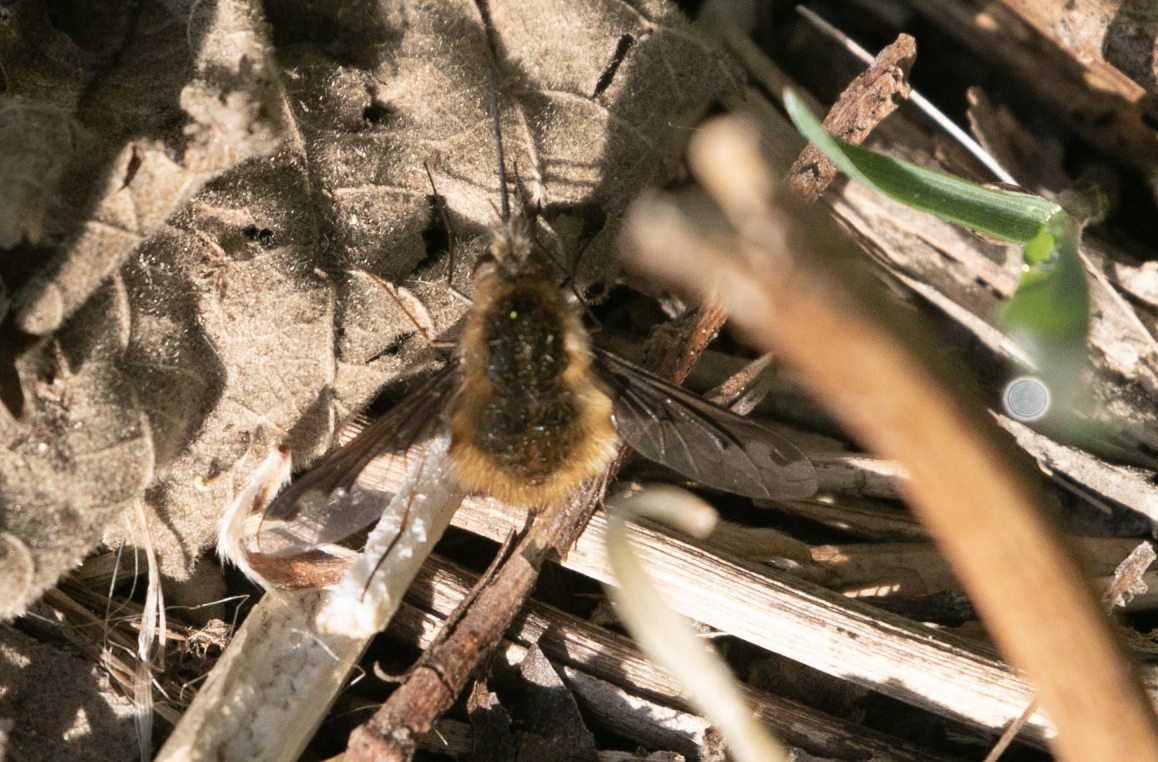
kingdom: Animalia
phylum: Arthropoda
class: Insecta
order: Diptera
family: Bombyliidae
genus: Bombylius
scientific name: Bombylius major
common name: Bee fly
